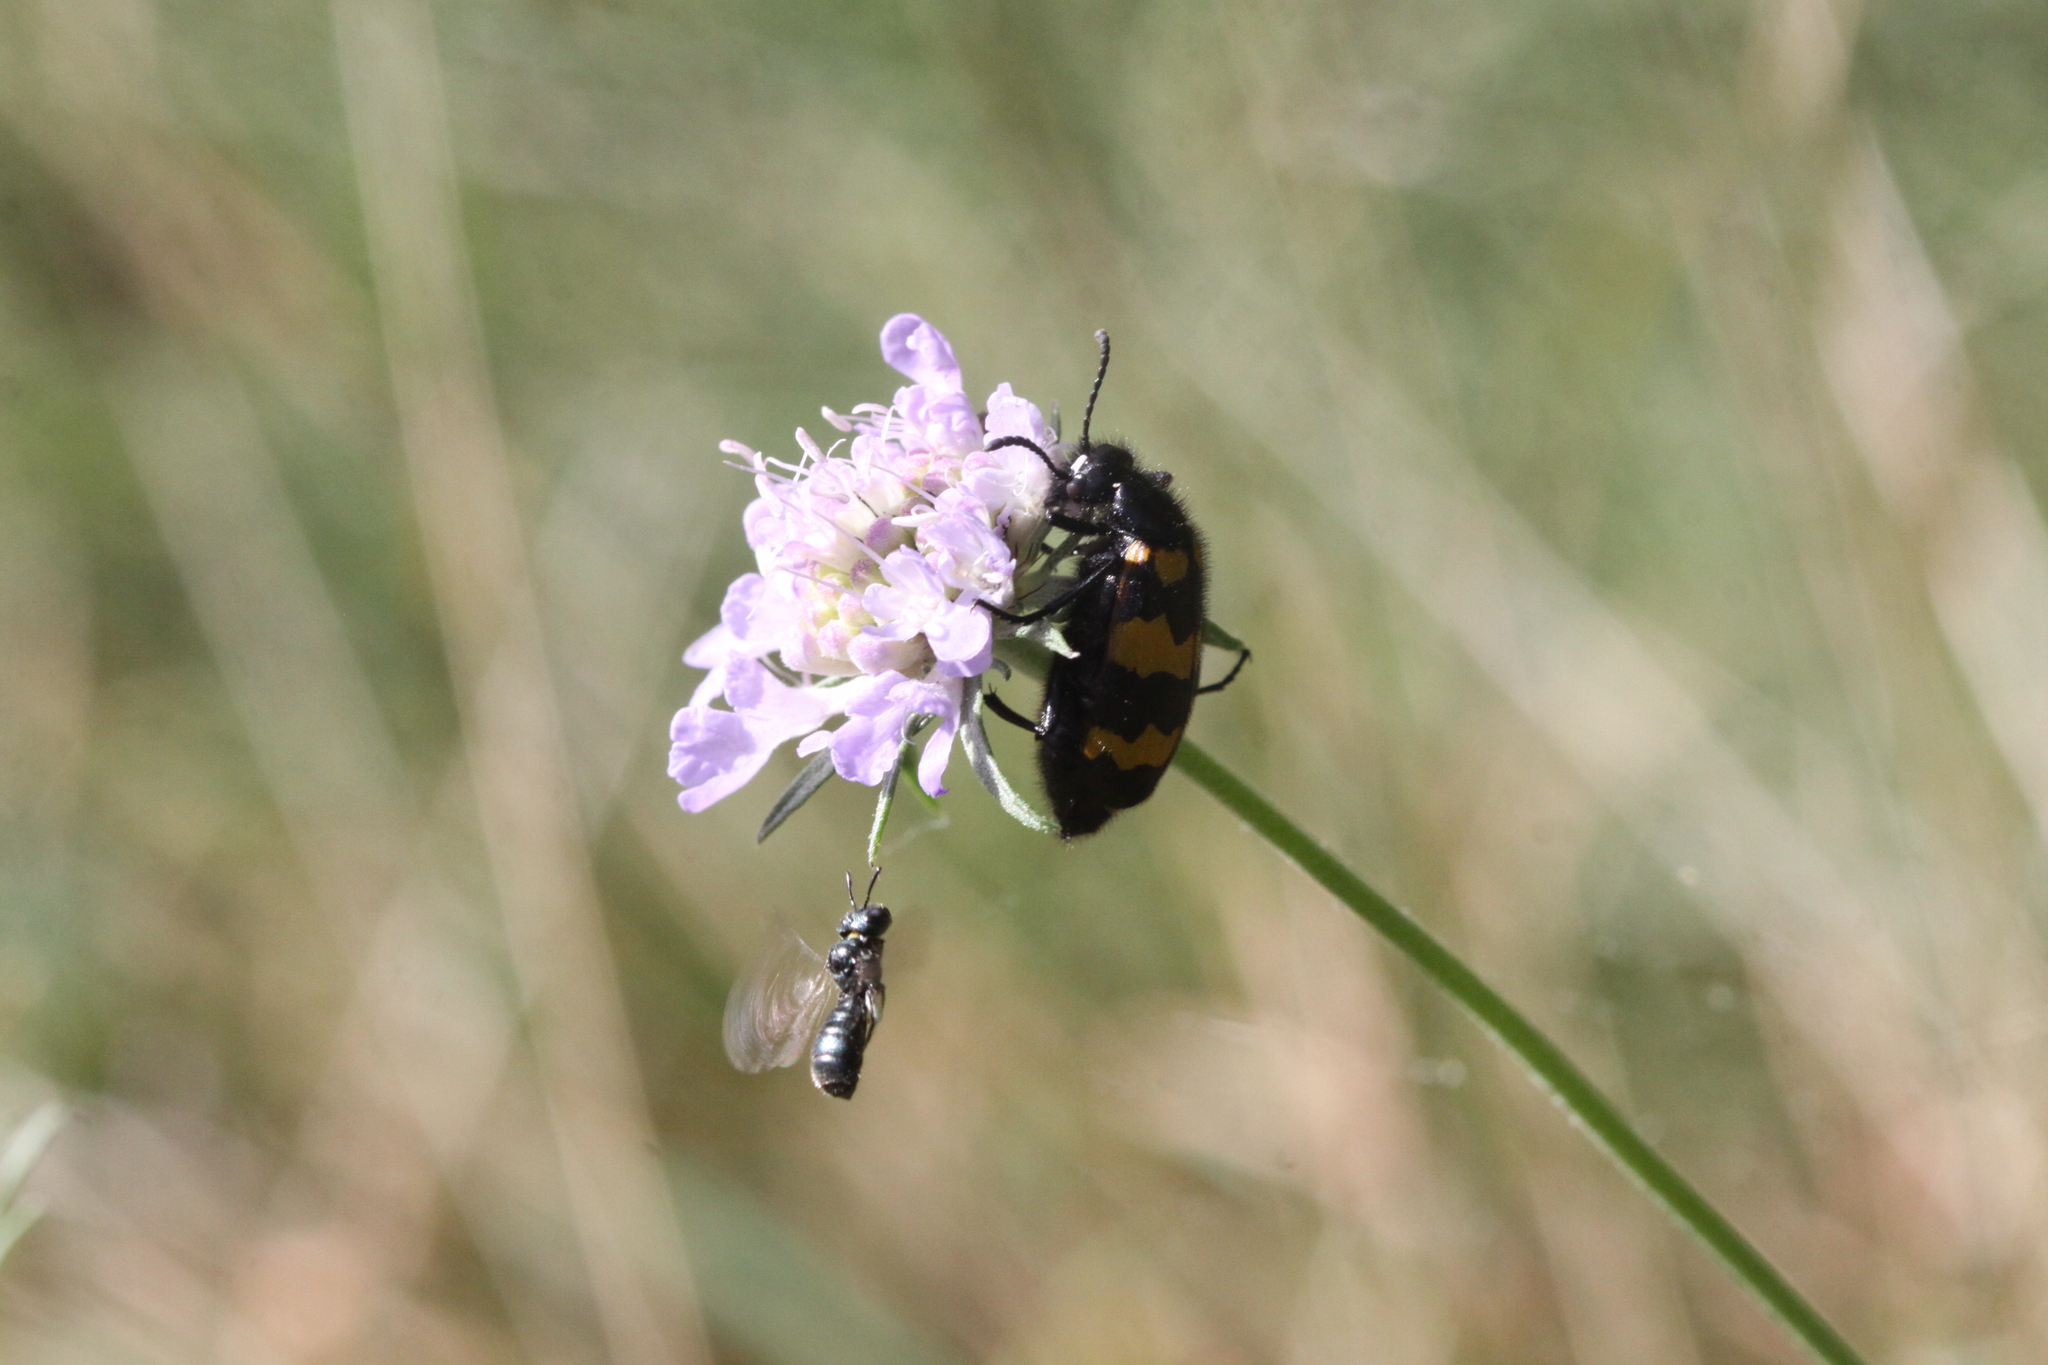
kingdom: Animalia
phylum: Arthropoda
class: Insecta
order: Coleoptera
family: Meloidae
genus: Mylabris
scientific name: Mylabris variabilis
